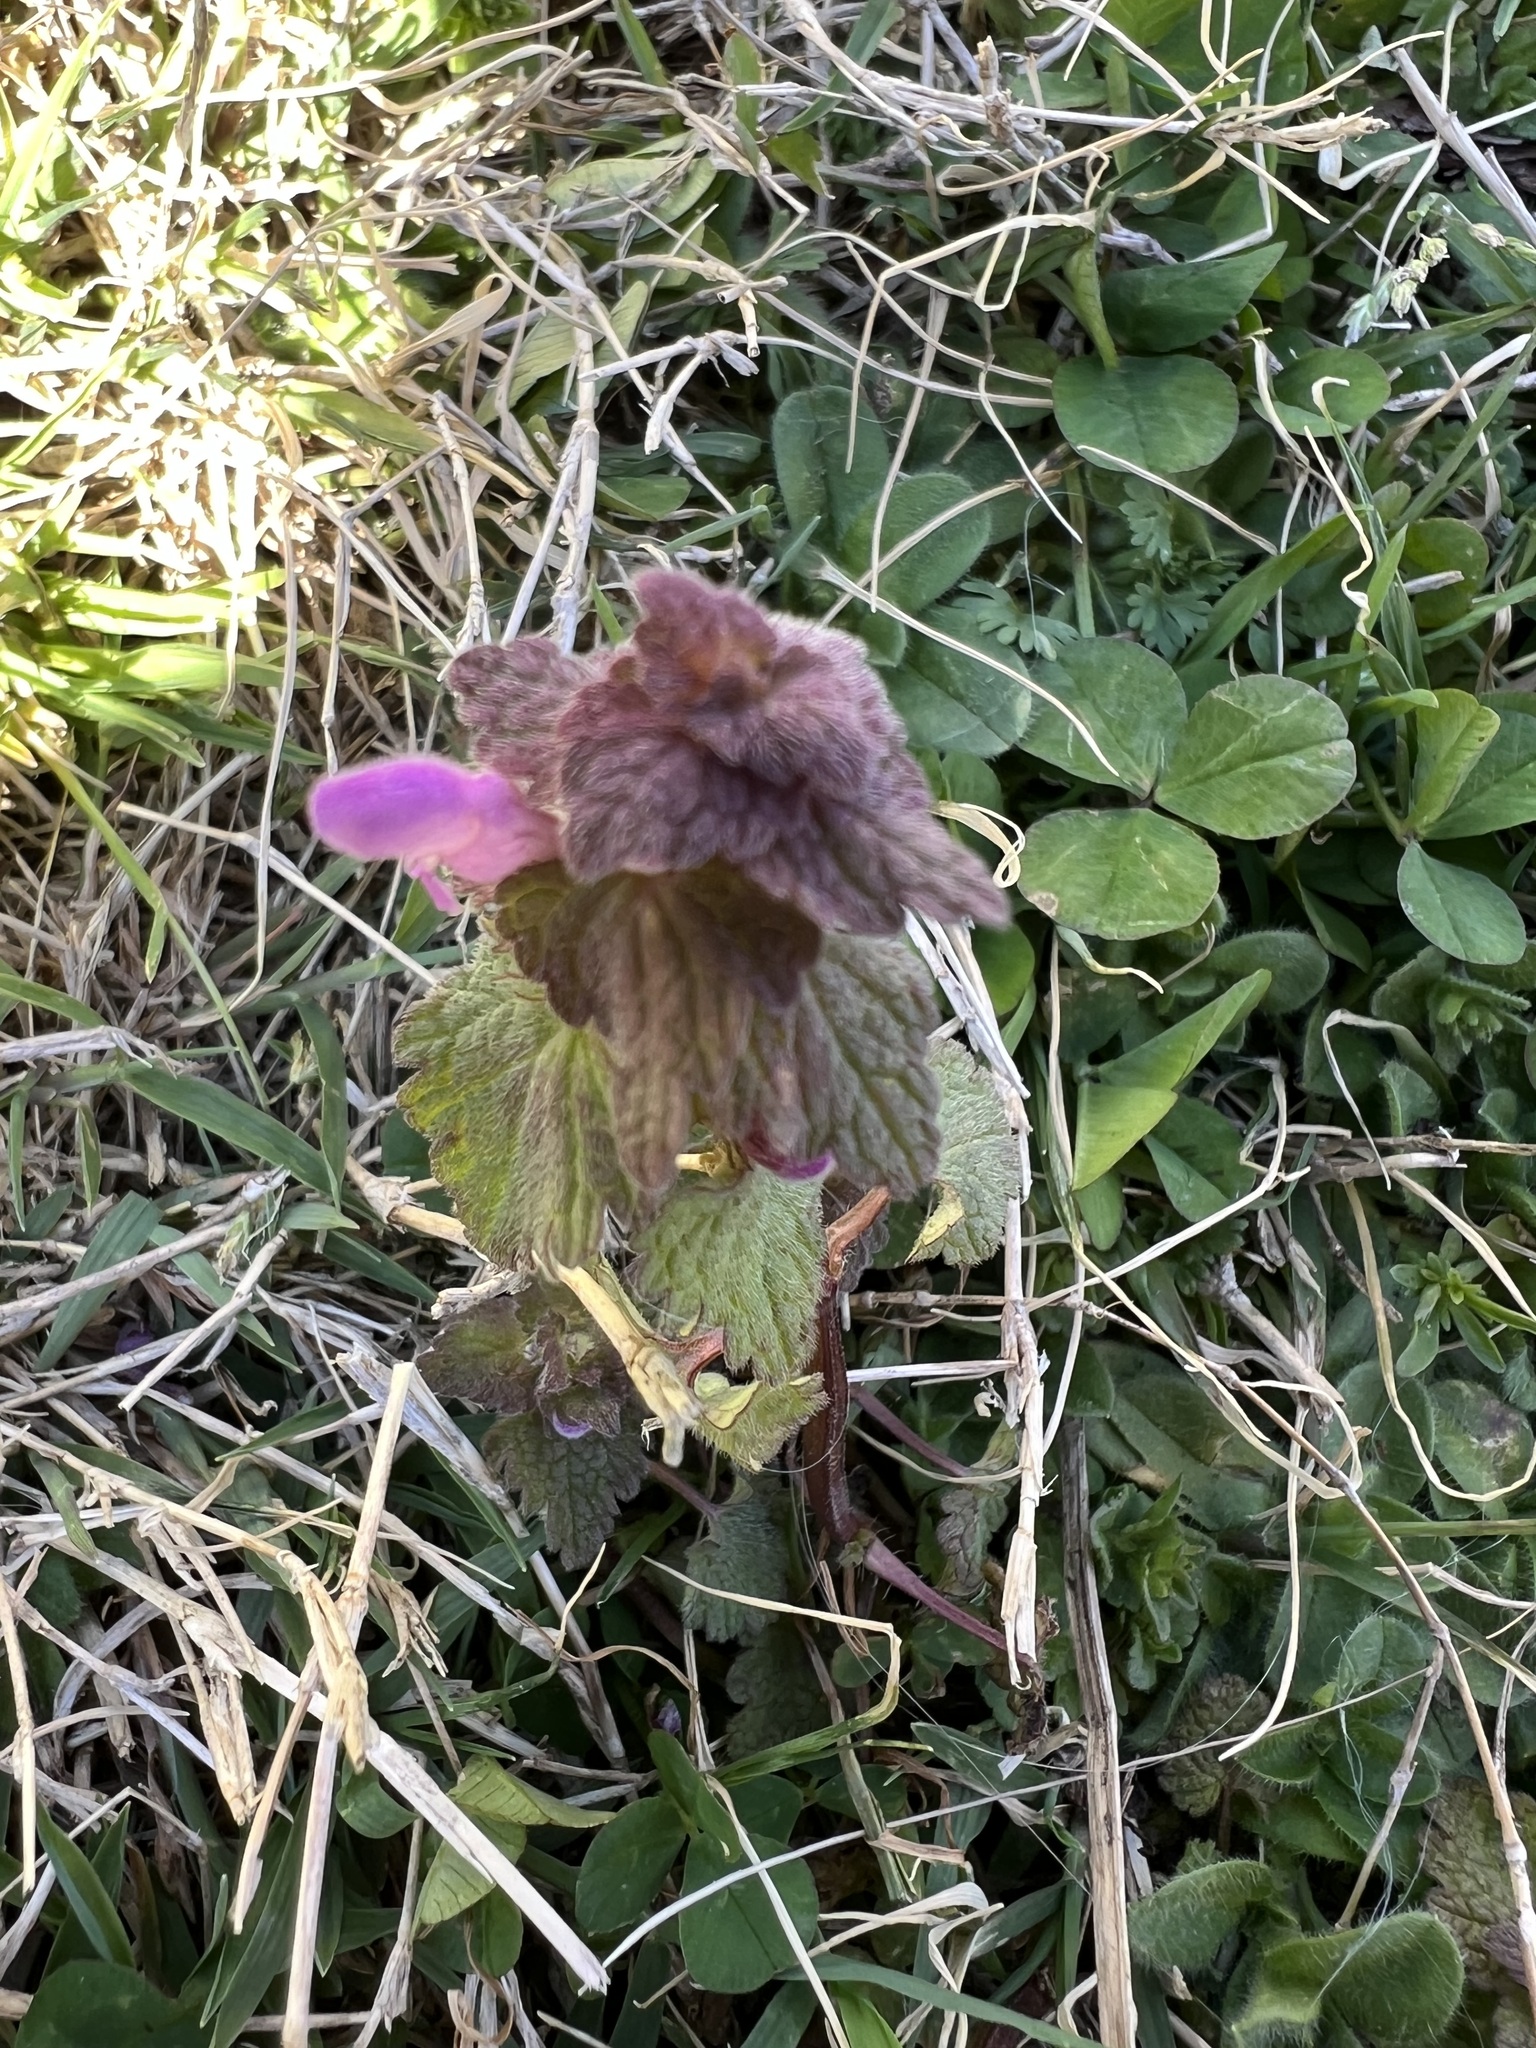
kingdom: Plantae
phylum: Tracheophyta
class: Magnoliopsida
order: Lamiales
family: Lamiaceae
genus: Lamium
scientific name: Lamium purpureum
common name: Red dead-nettle
